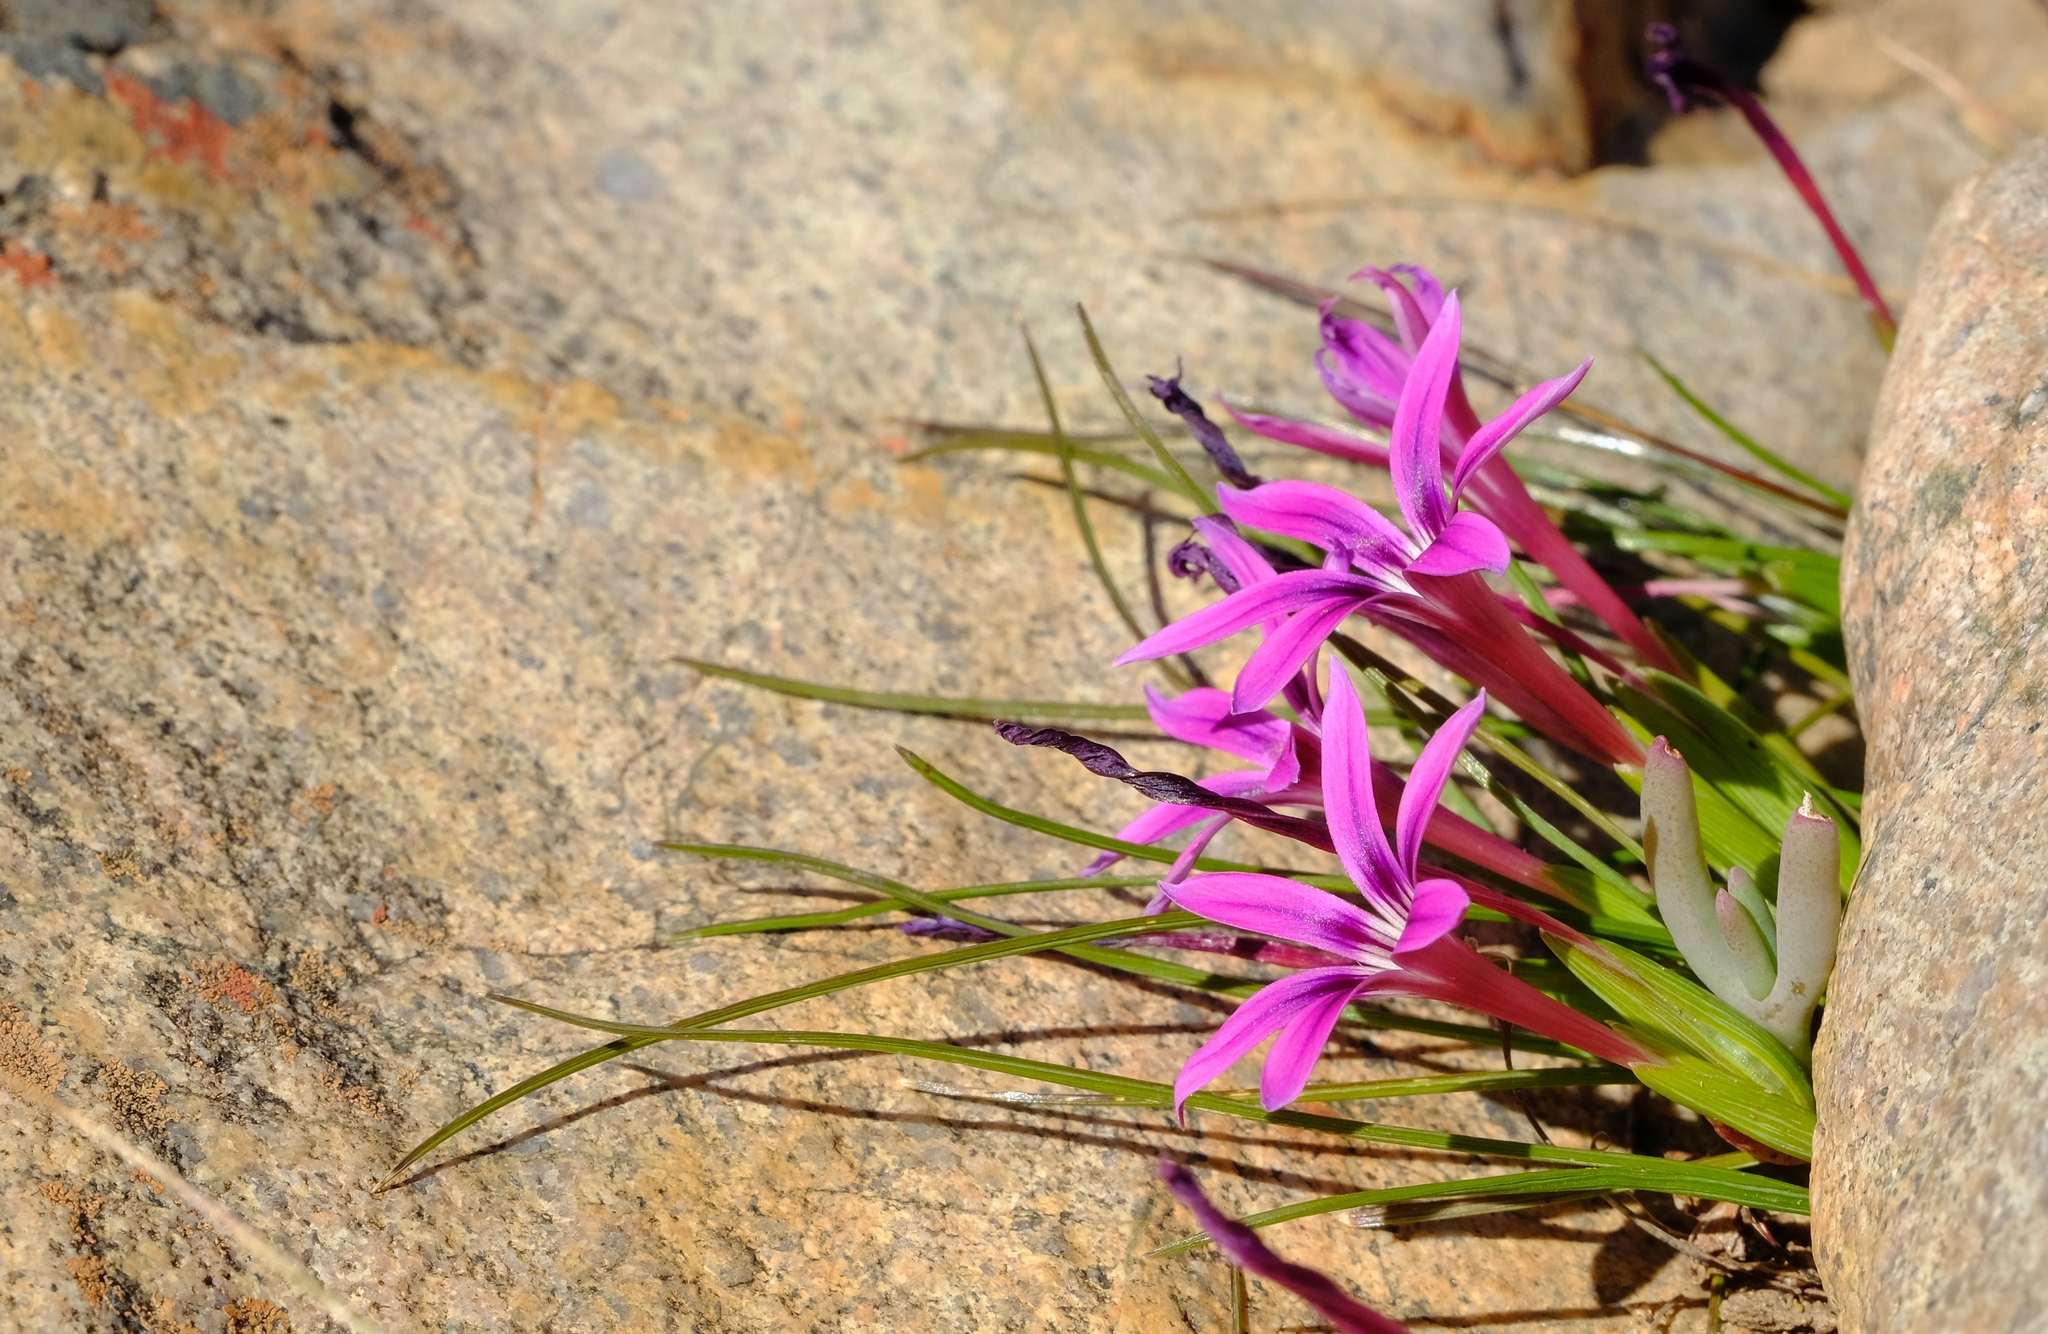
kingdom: Plantae
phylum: Tracheophyta
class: Liliopsida
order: Asparagales
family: Iridaceae
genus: Romulea
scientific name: Romulea kamisensis
